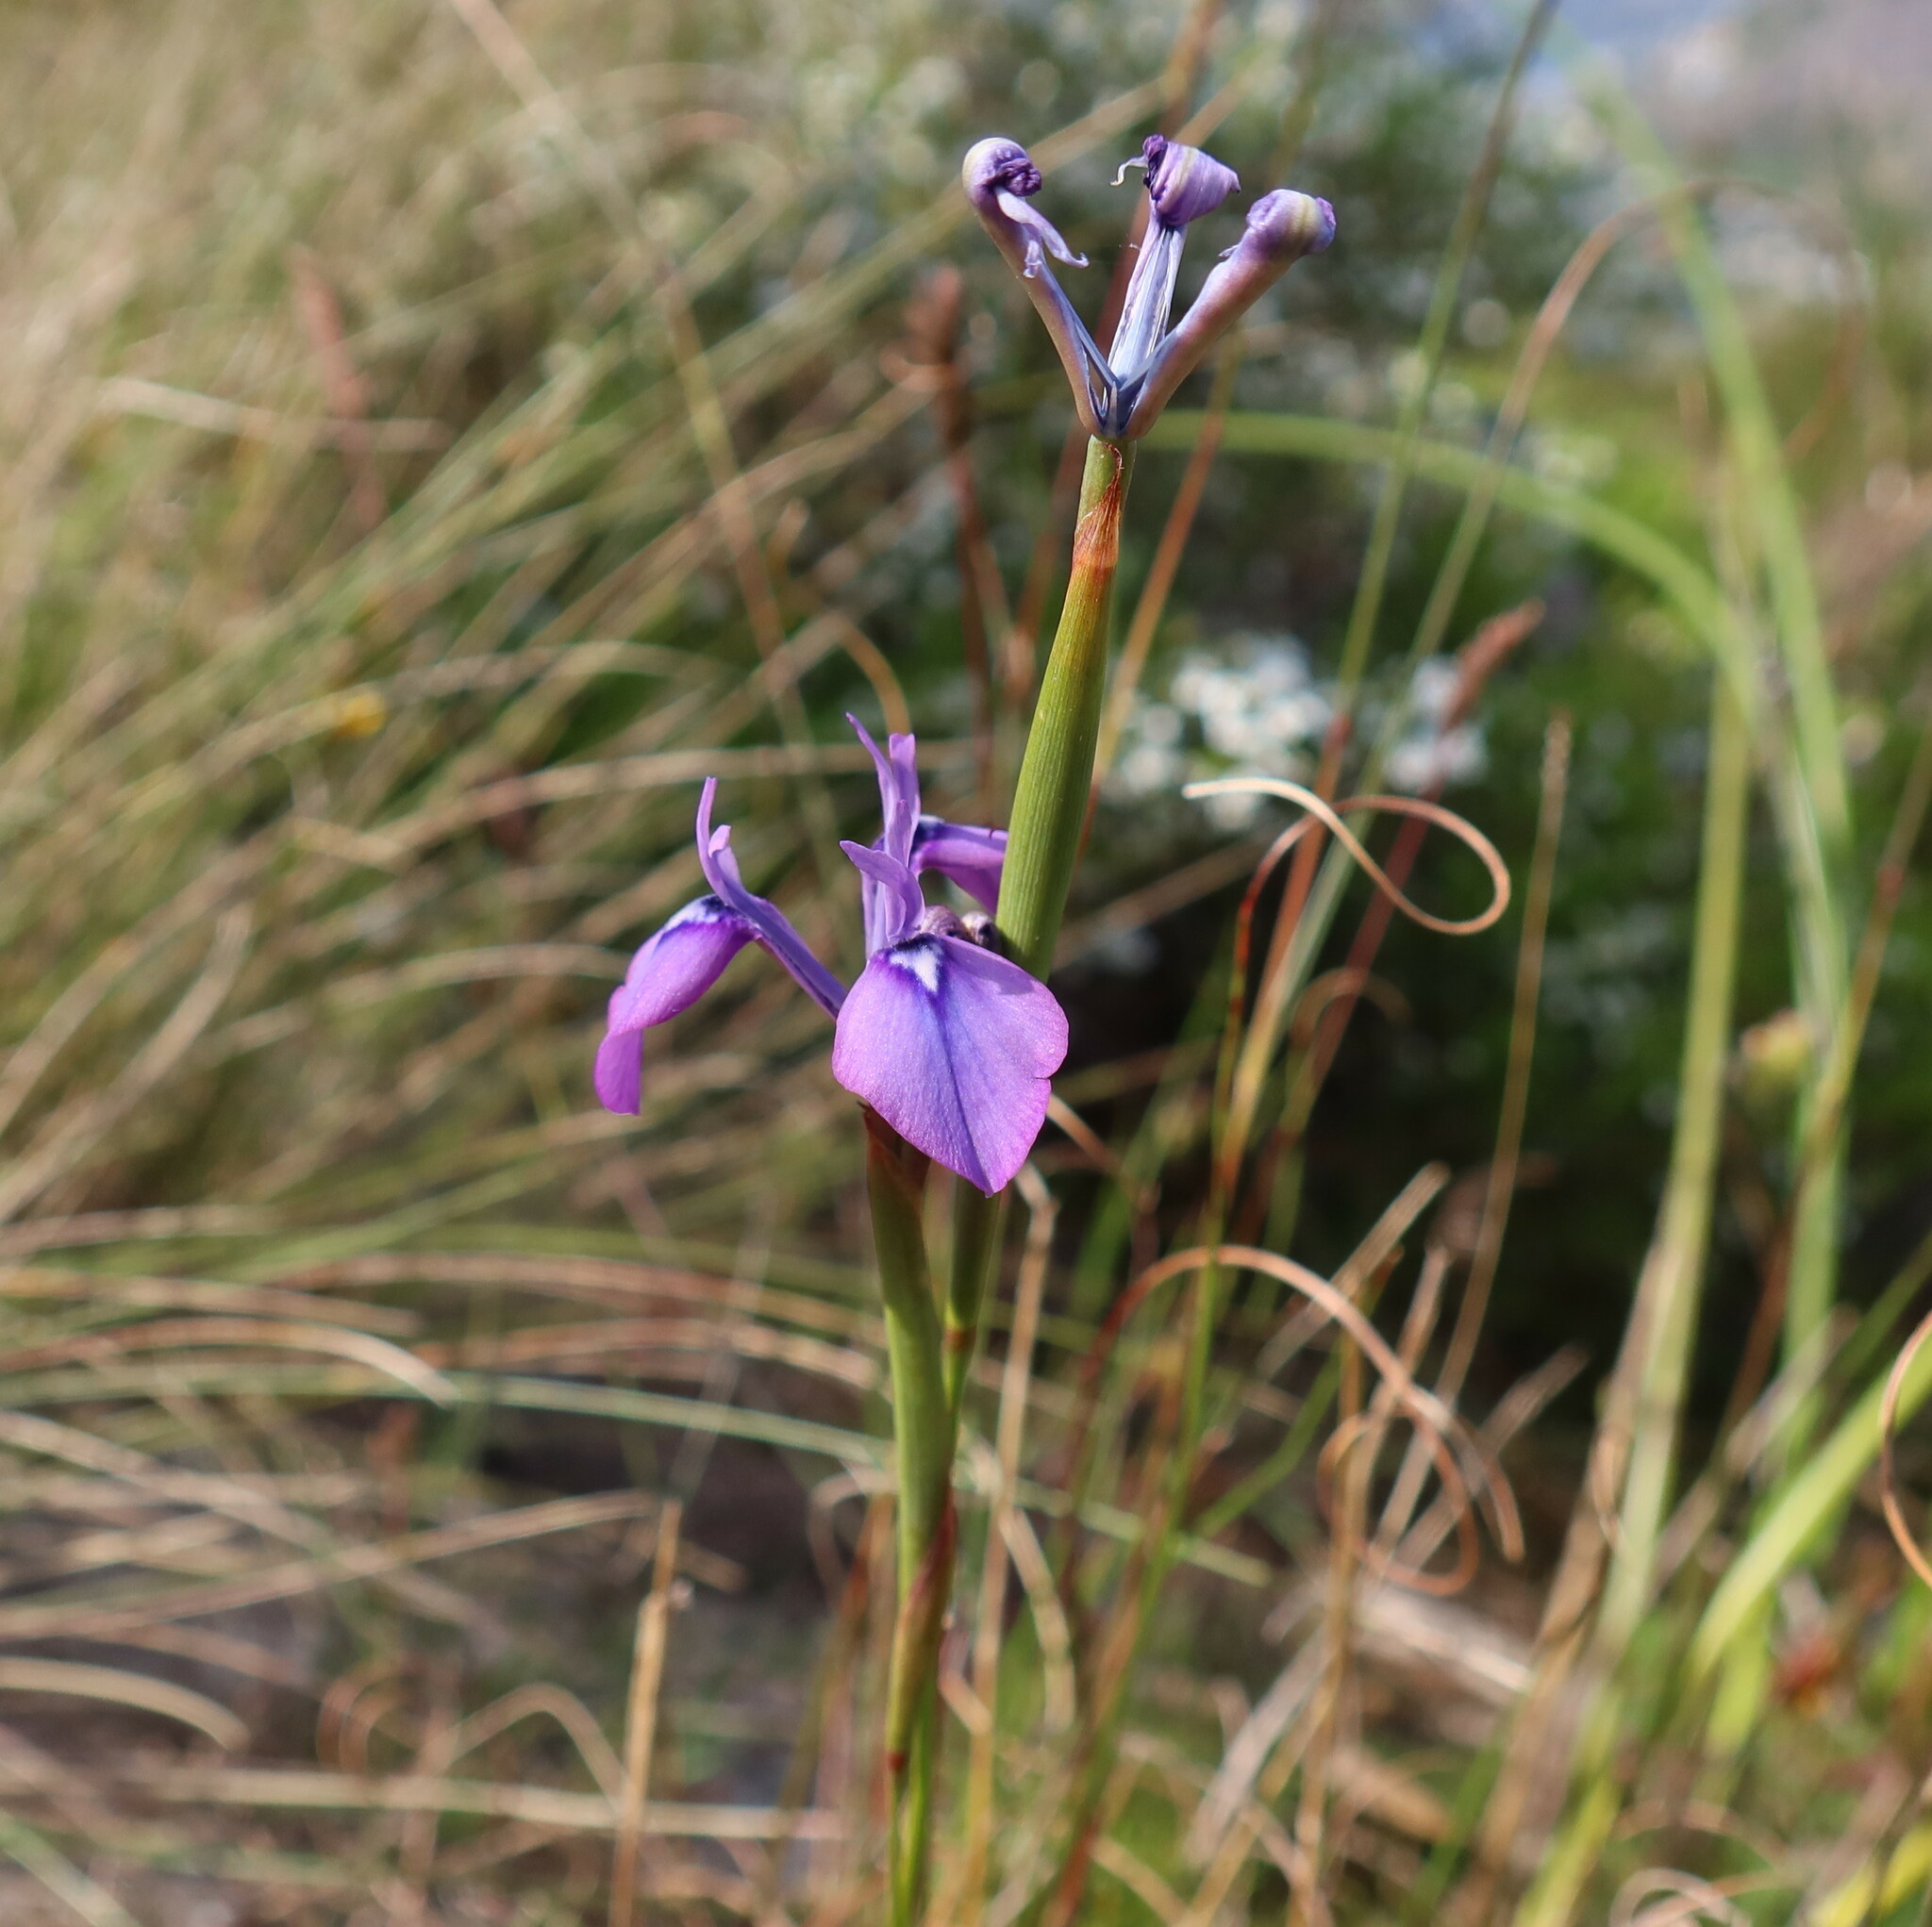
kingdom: Plantae
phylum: Tracheophyta
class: Liliopsida
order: Asparagales
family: Iridaceae
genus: Moraea
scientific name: Moraea tripetala
